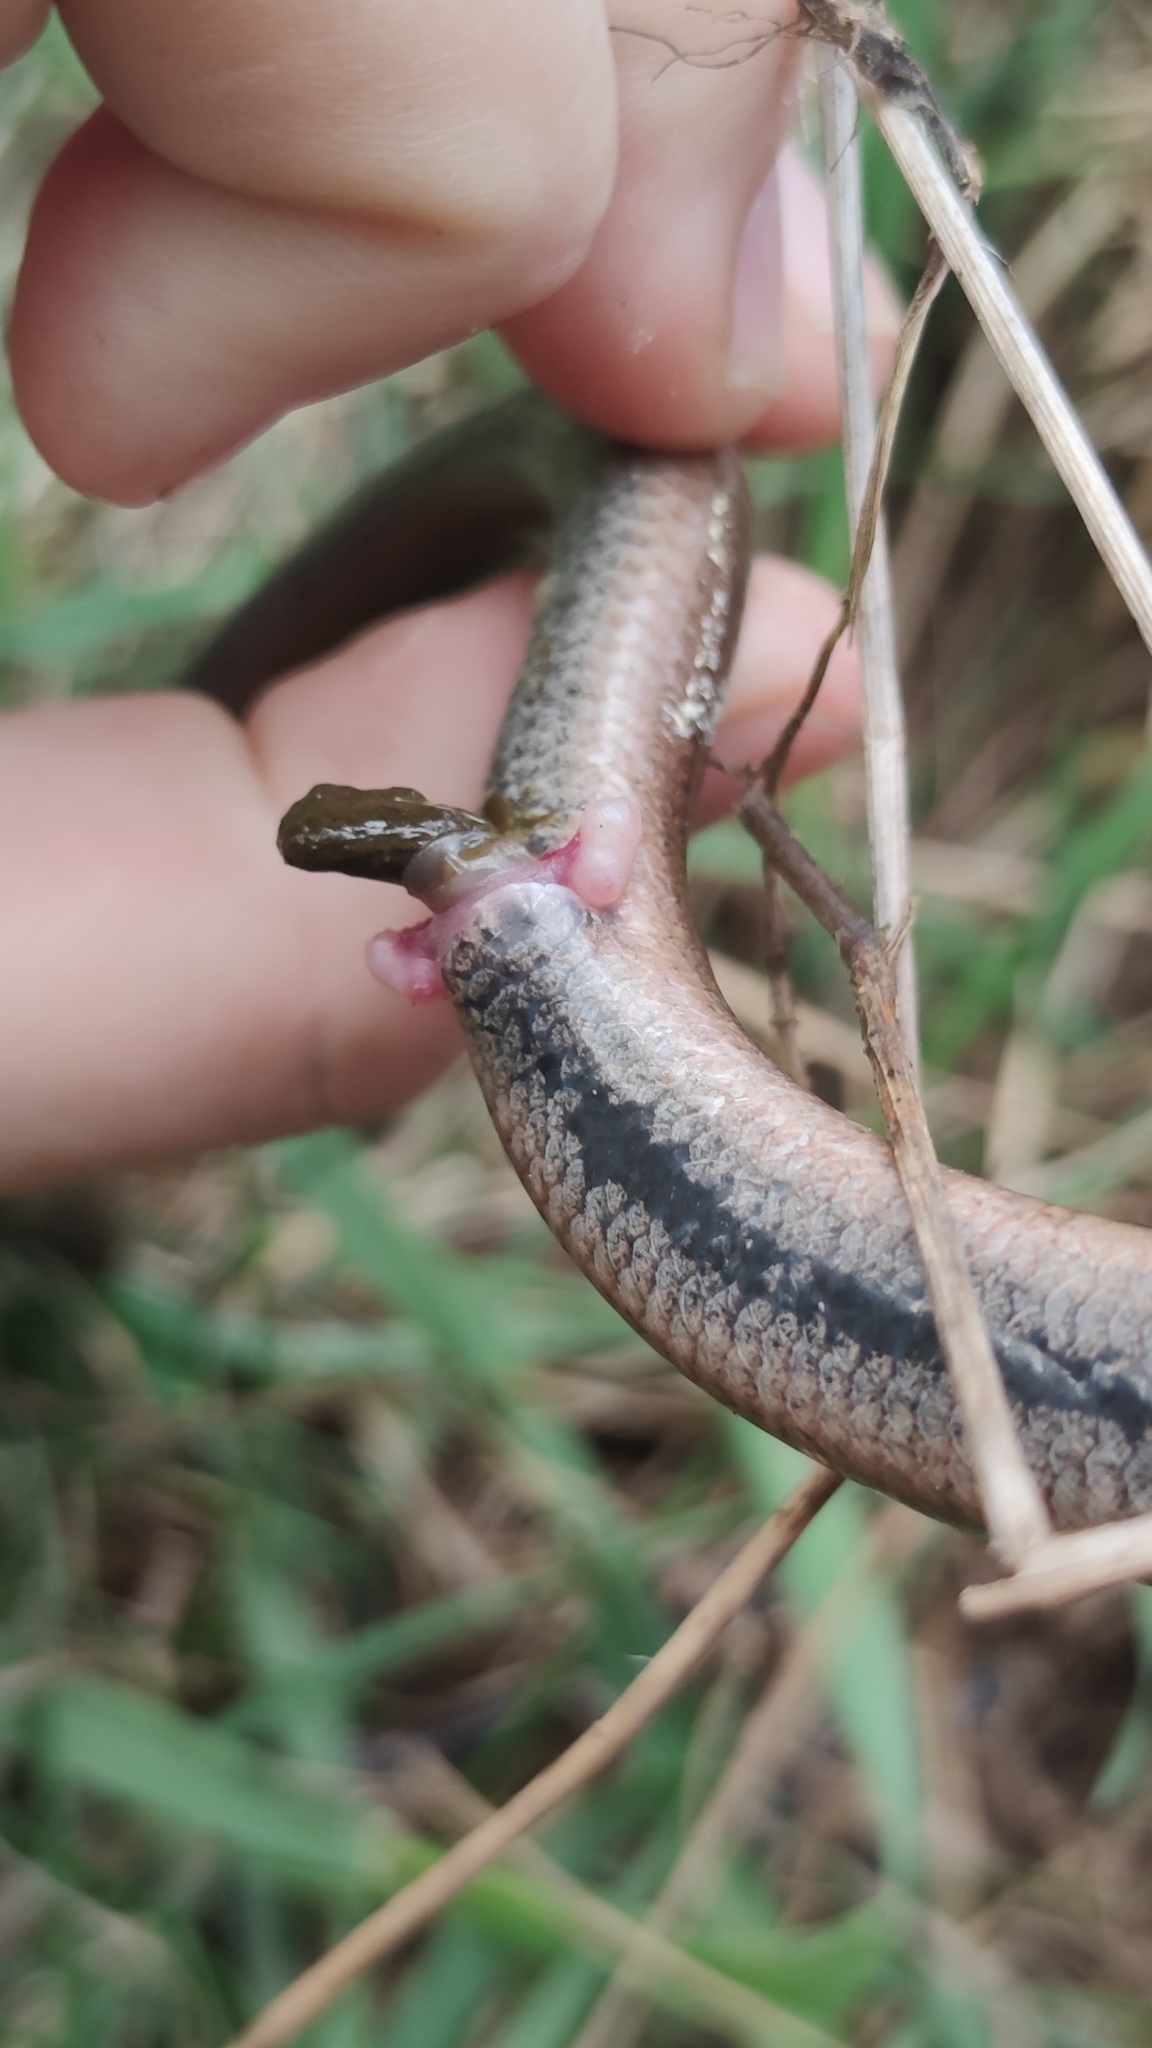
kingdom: Animalia
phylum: Chordata
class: Squamata
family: Anguidae
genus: Anguis
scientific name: Anguis fragilis
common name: Slow worm
